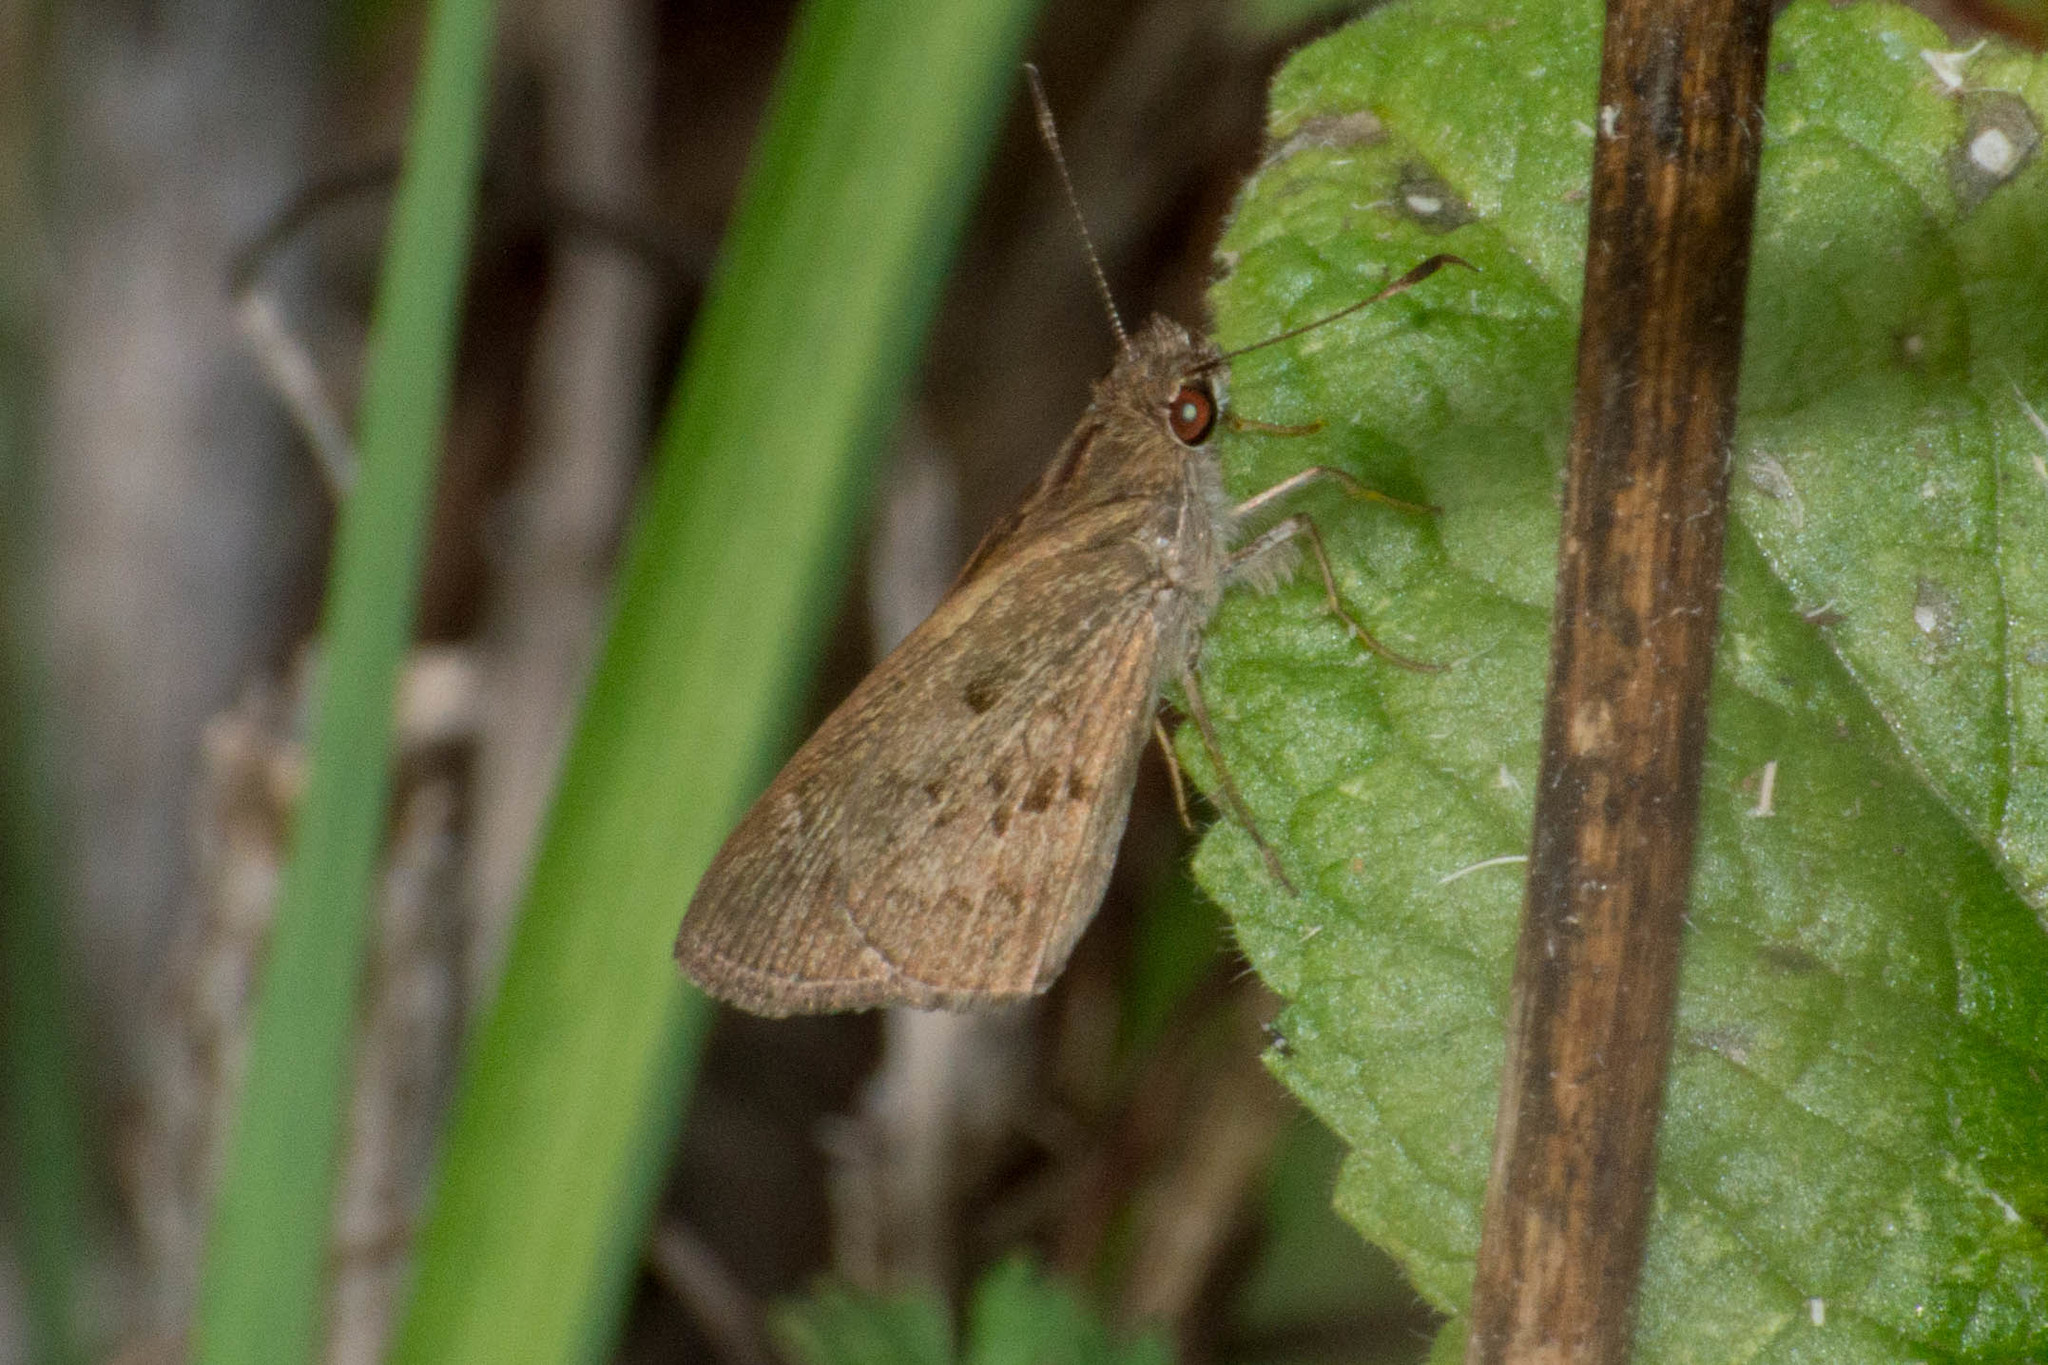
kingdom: Animalia
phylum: Arthropoda
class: Insecta
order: Lepidoptera
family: Hesperiidae
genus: Cymaenes
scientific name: Cymaenes gisca
